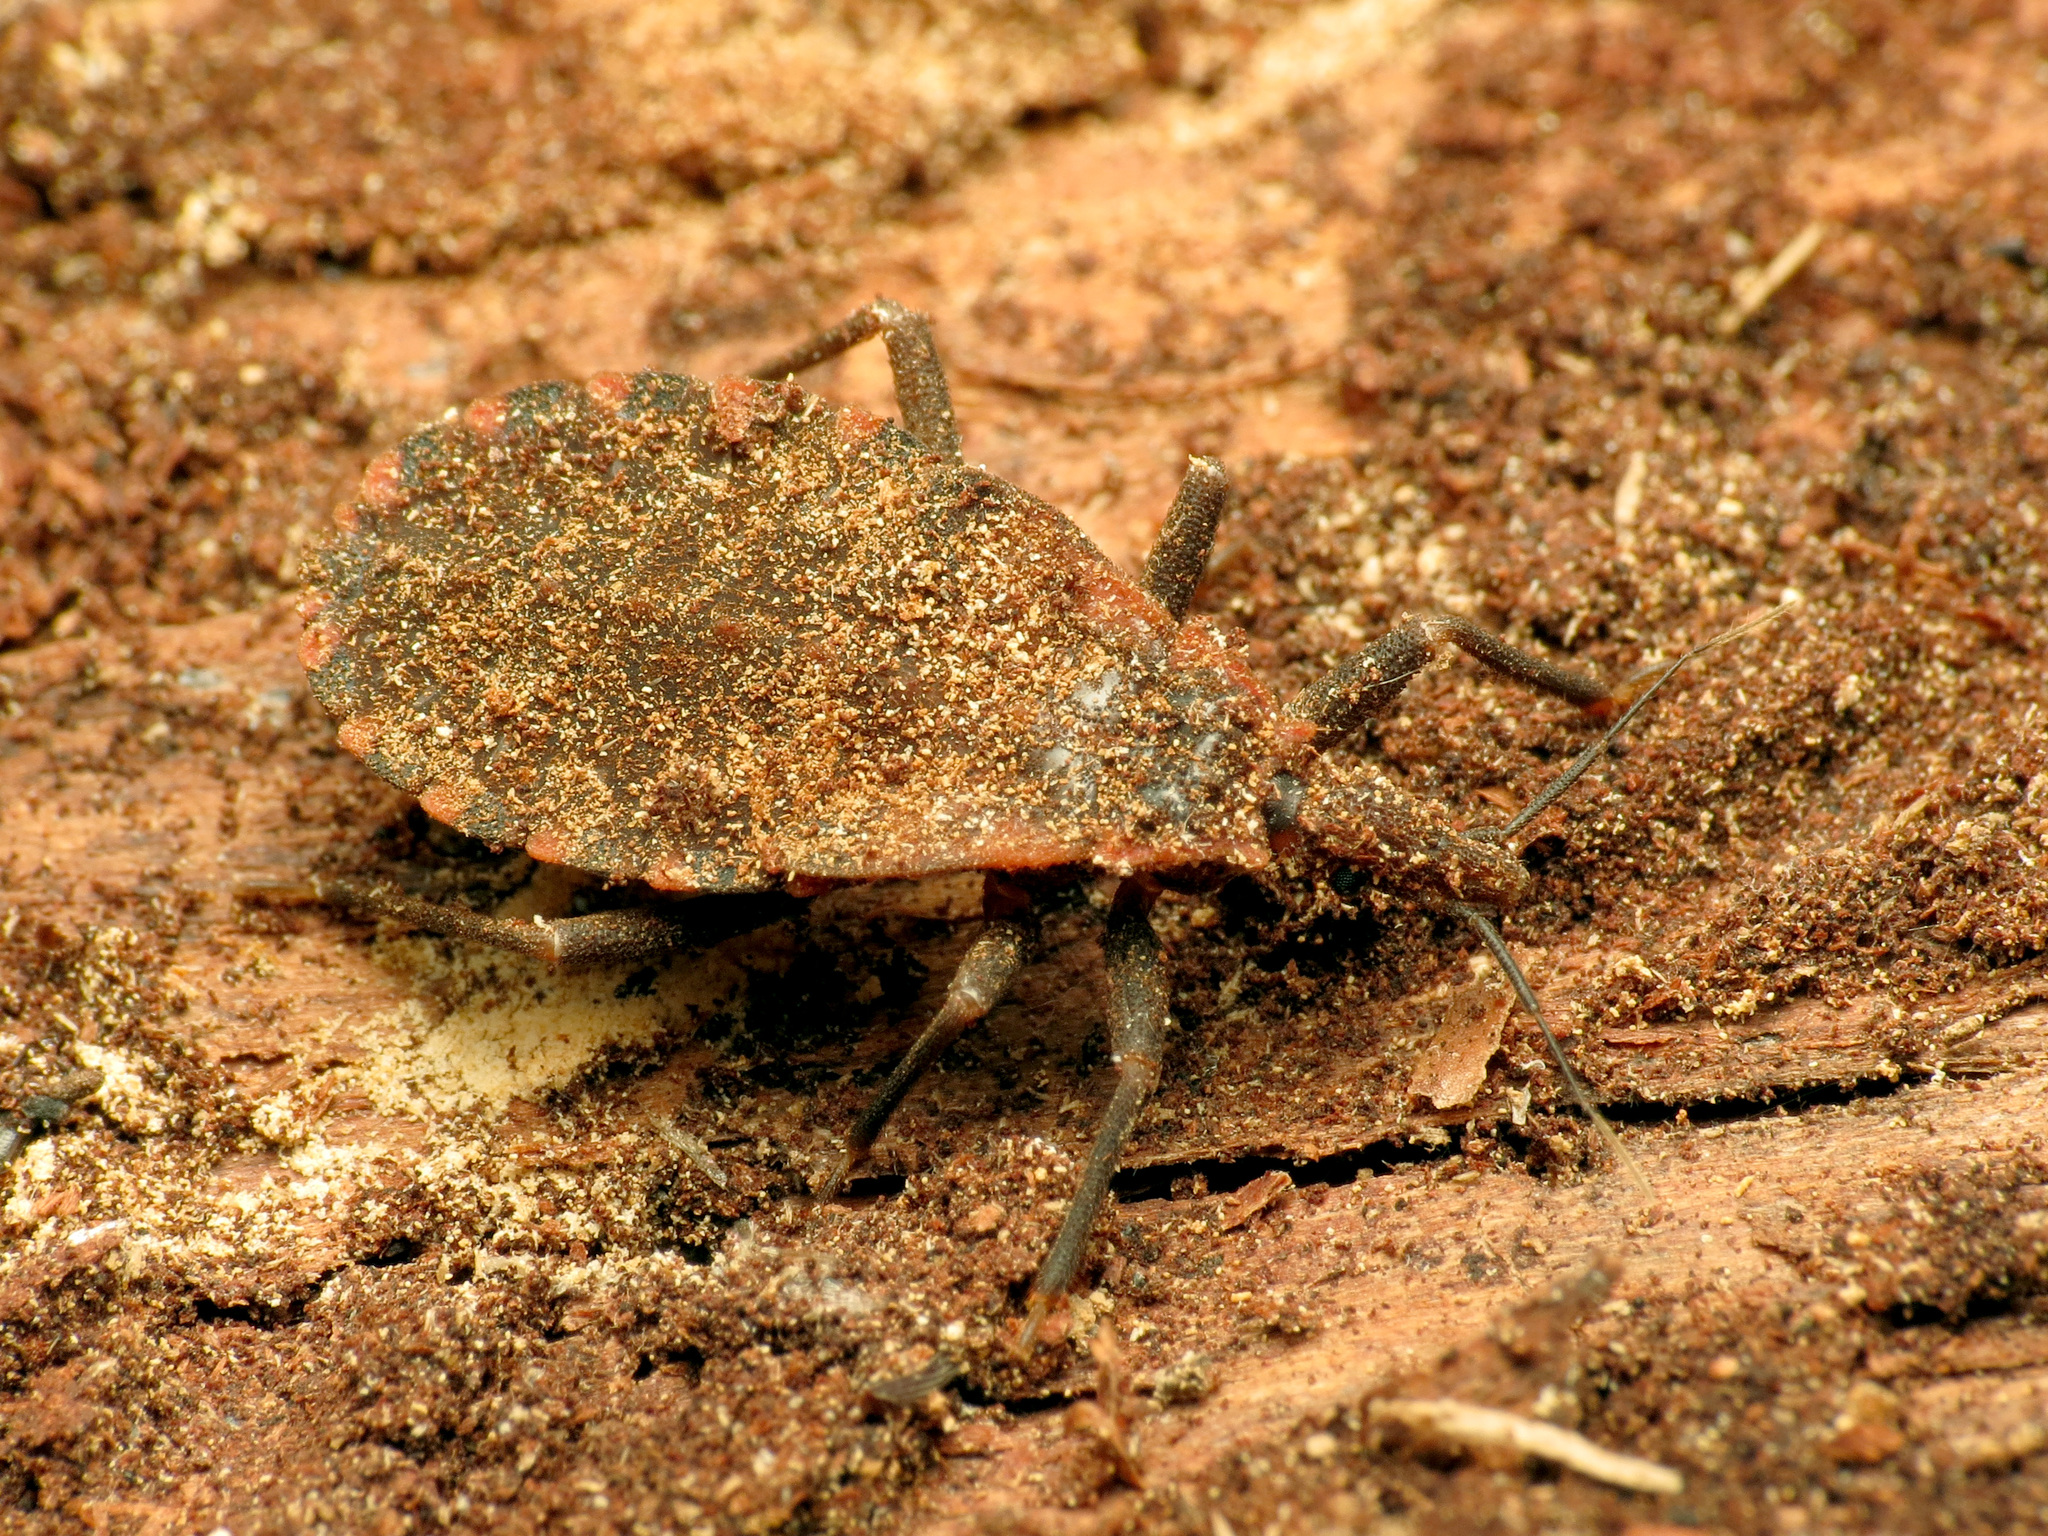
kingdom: Animalia
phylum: Arthropoda
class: Insecta
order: Hemiptera
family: Reduviidae
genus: Triatoma
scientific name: Triatoma sanguisuga
